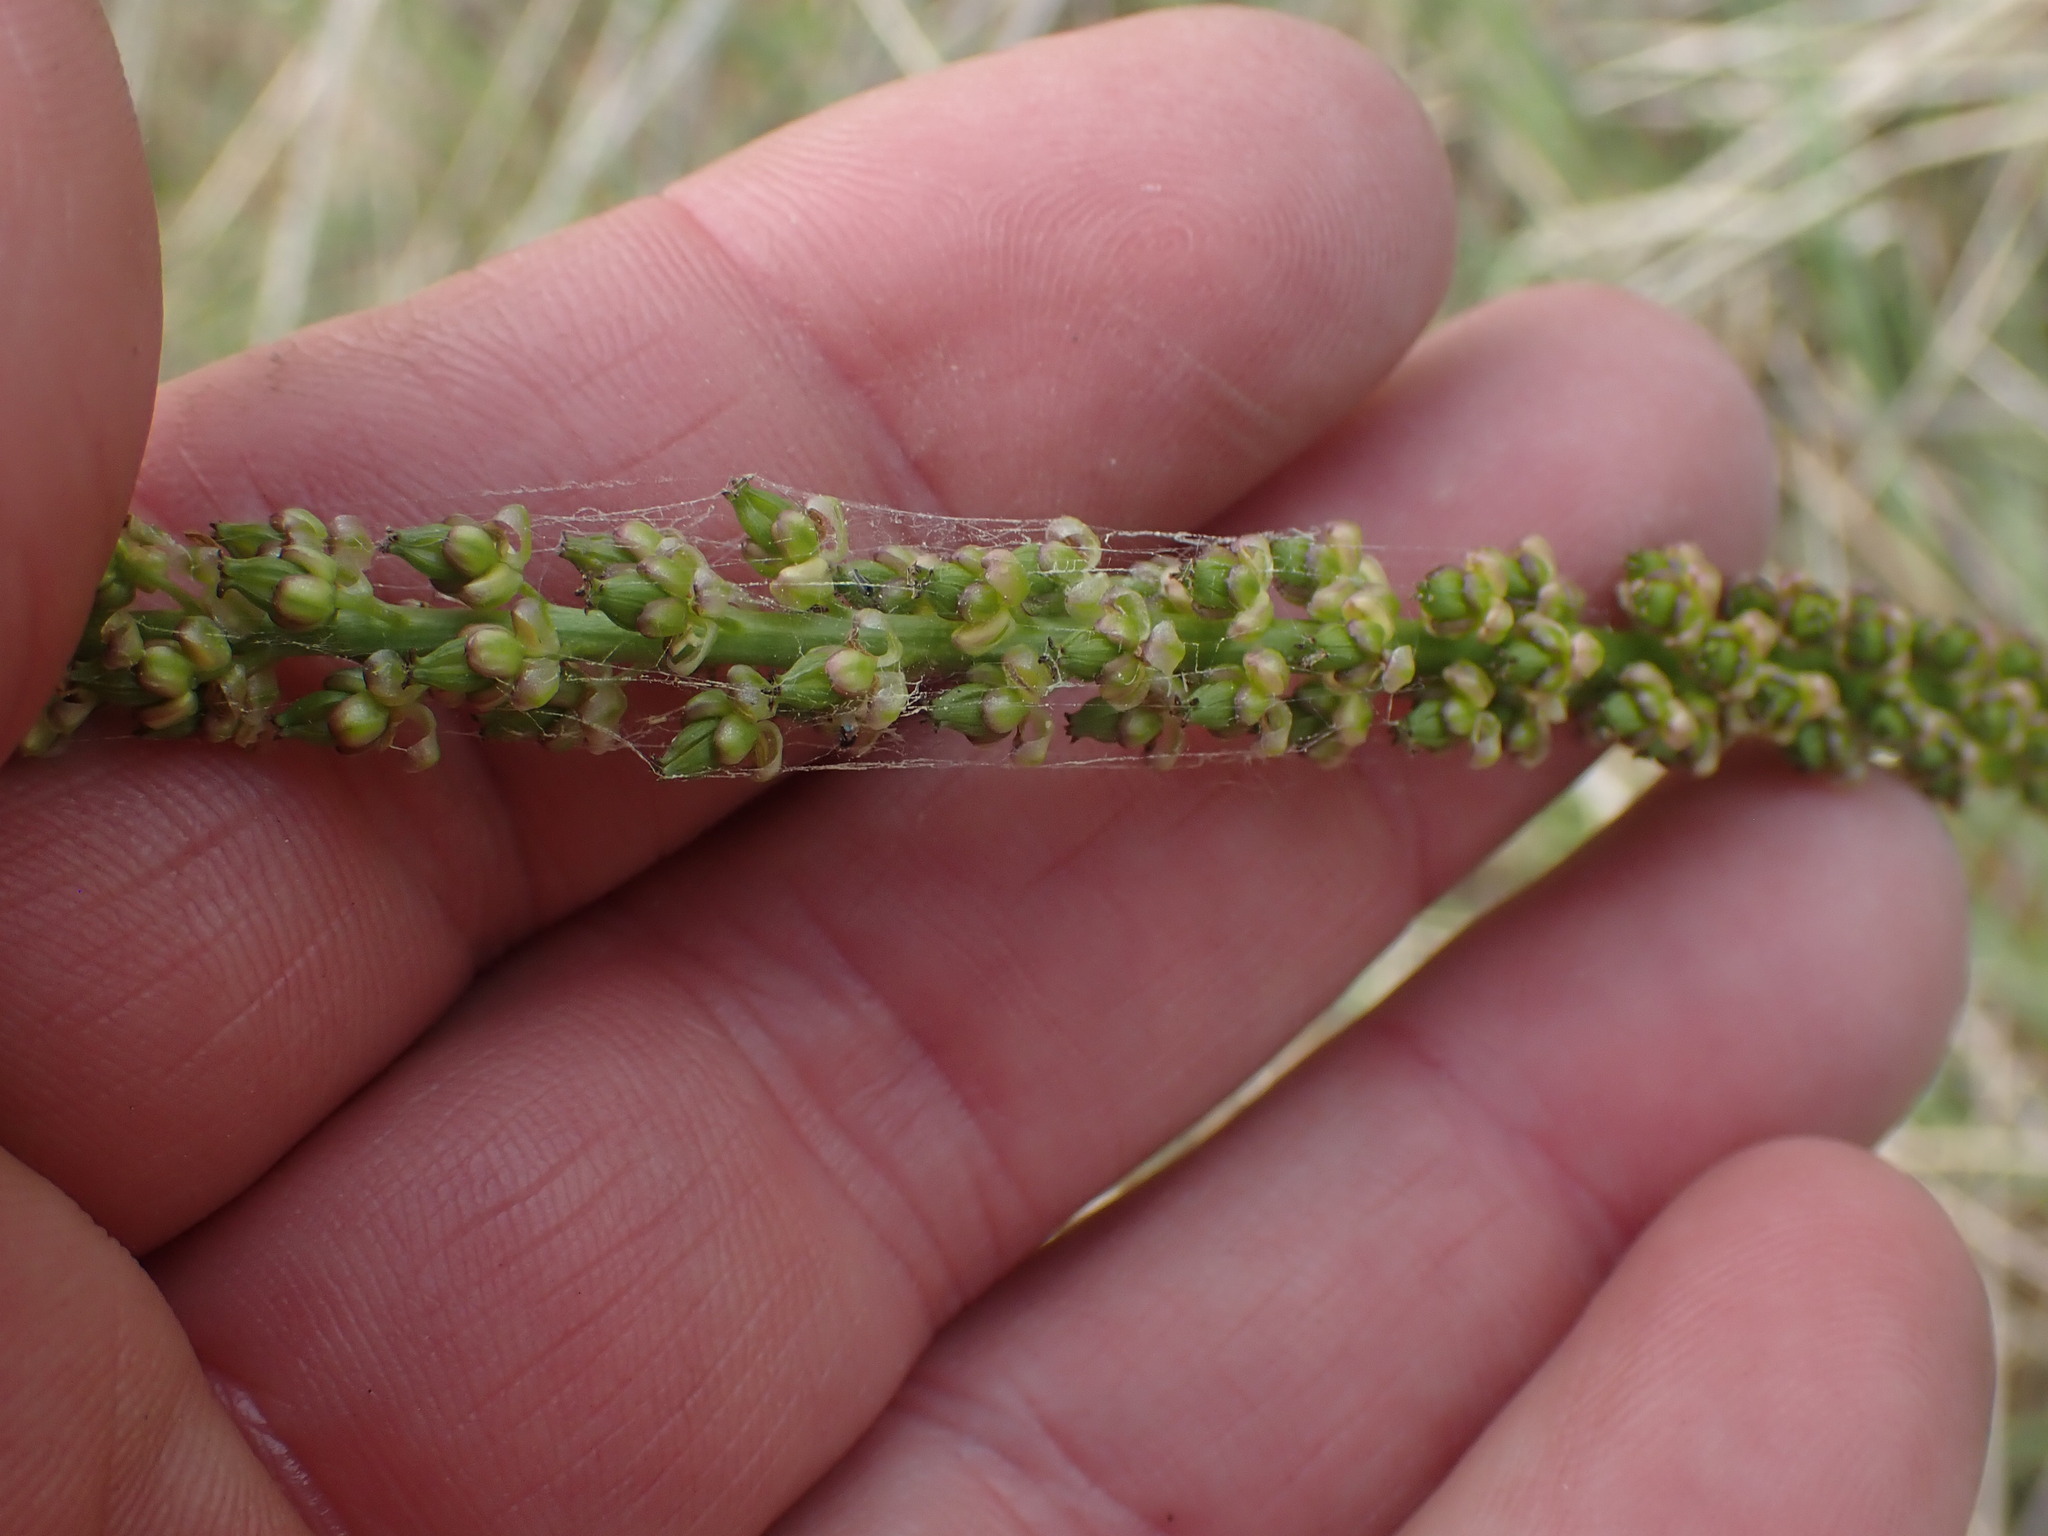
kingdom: Plantae
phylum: Tracheophyta
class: Liliopsida
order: Alismatales
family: Juncaginaceae
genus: Triglochin
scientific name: Triglochin maritima
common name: Sea arrowgrass
